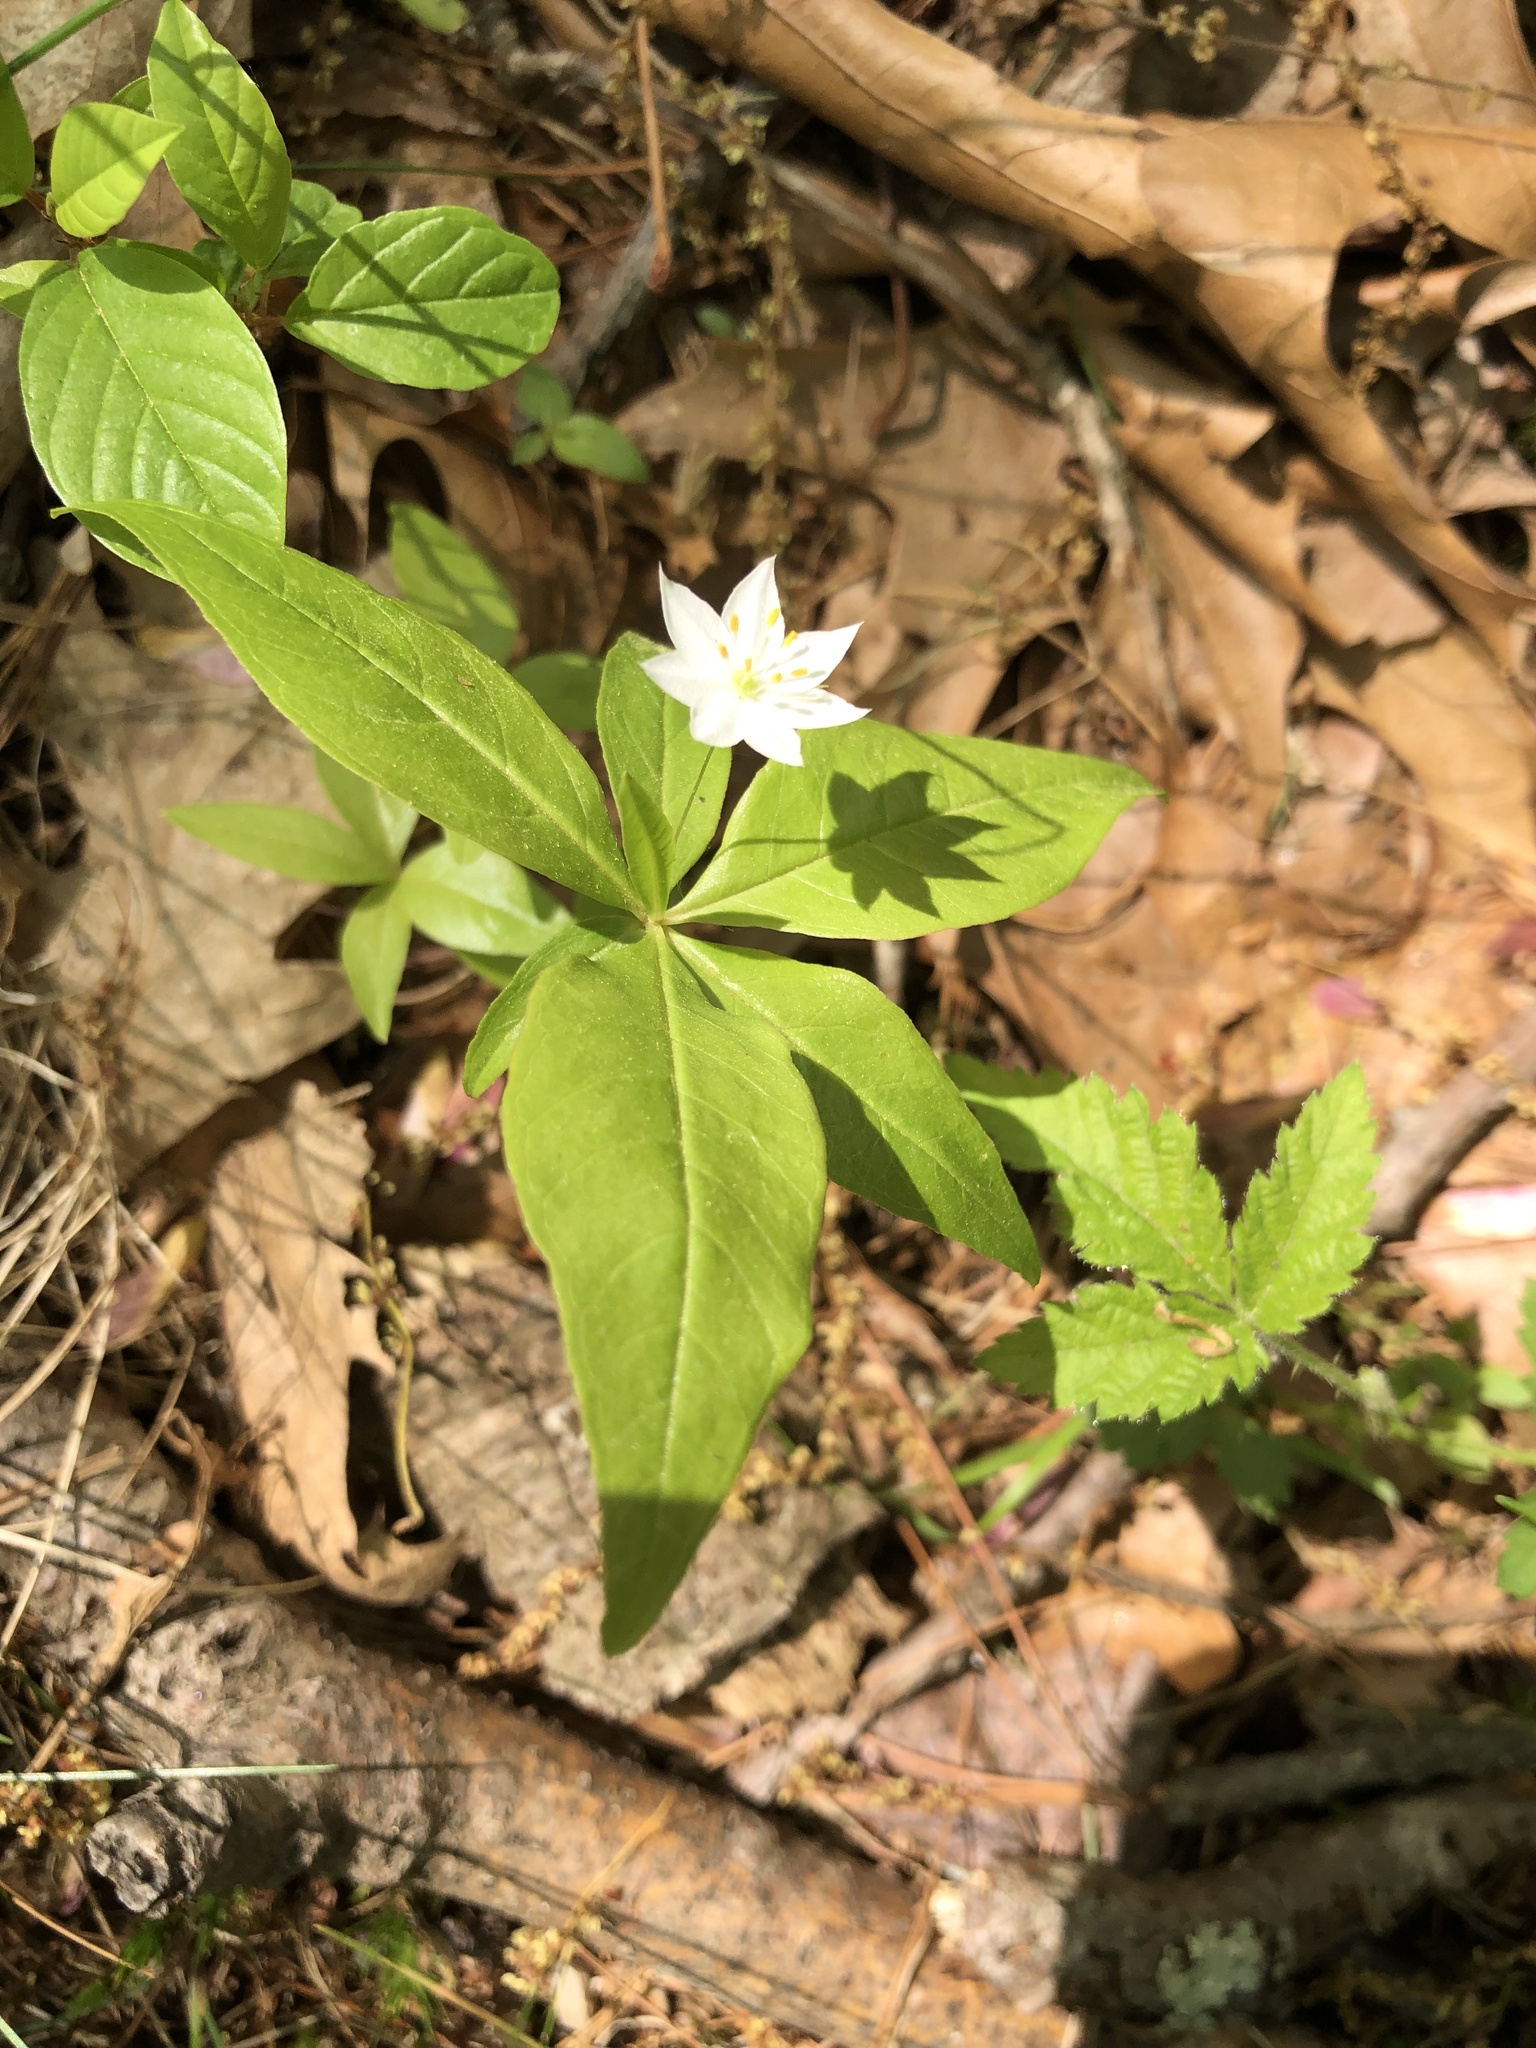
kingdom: Plantae
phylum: Tracheophyta
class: Magnoliopsida
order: Ericales
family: Primulaceae
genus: Lysimachia
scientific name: Lysimachia borealis
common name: American starflower
